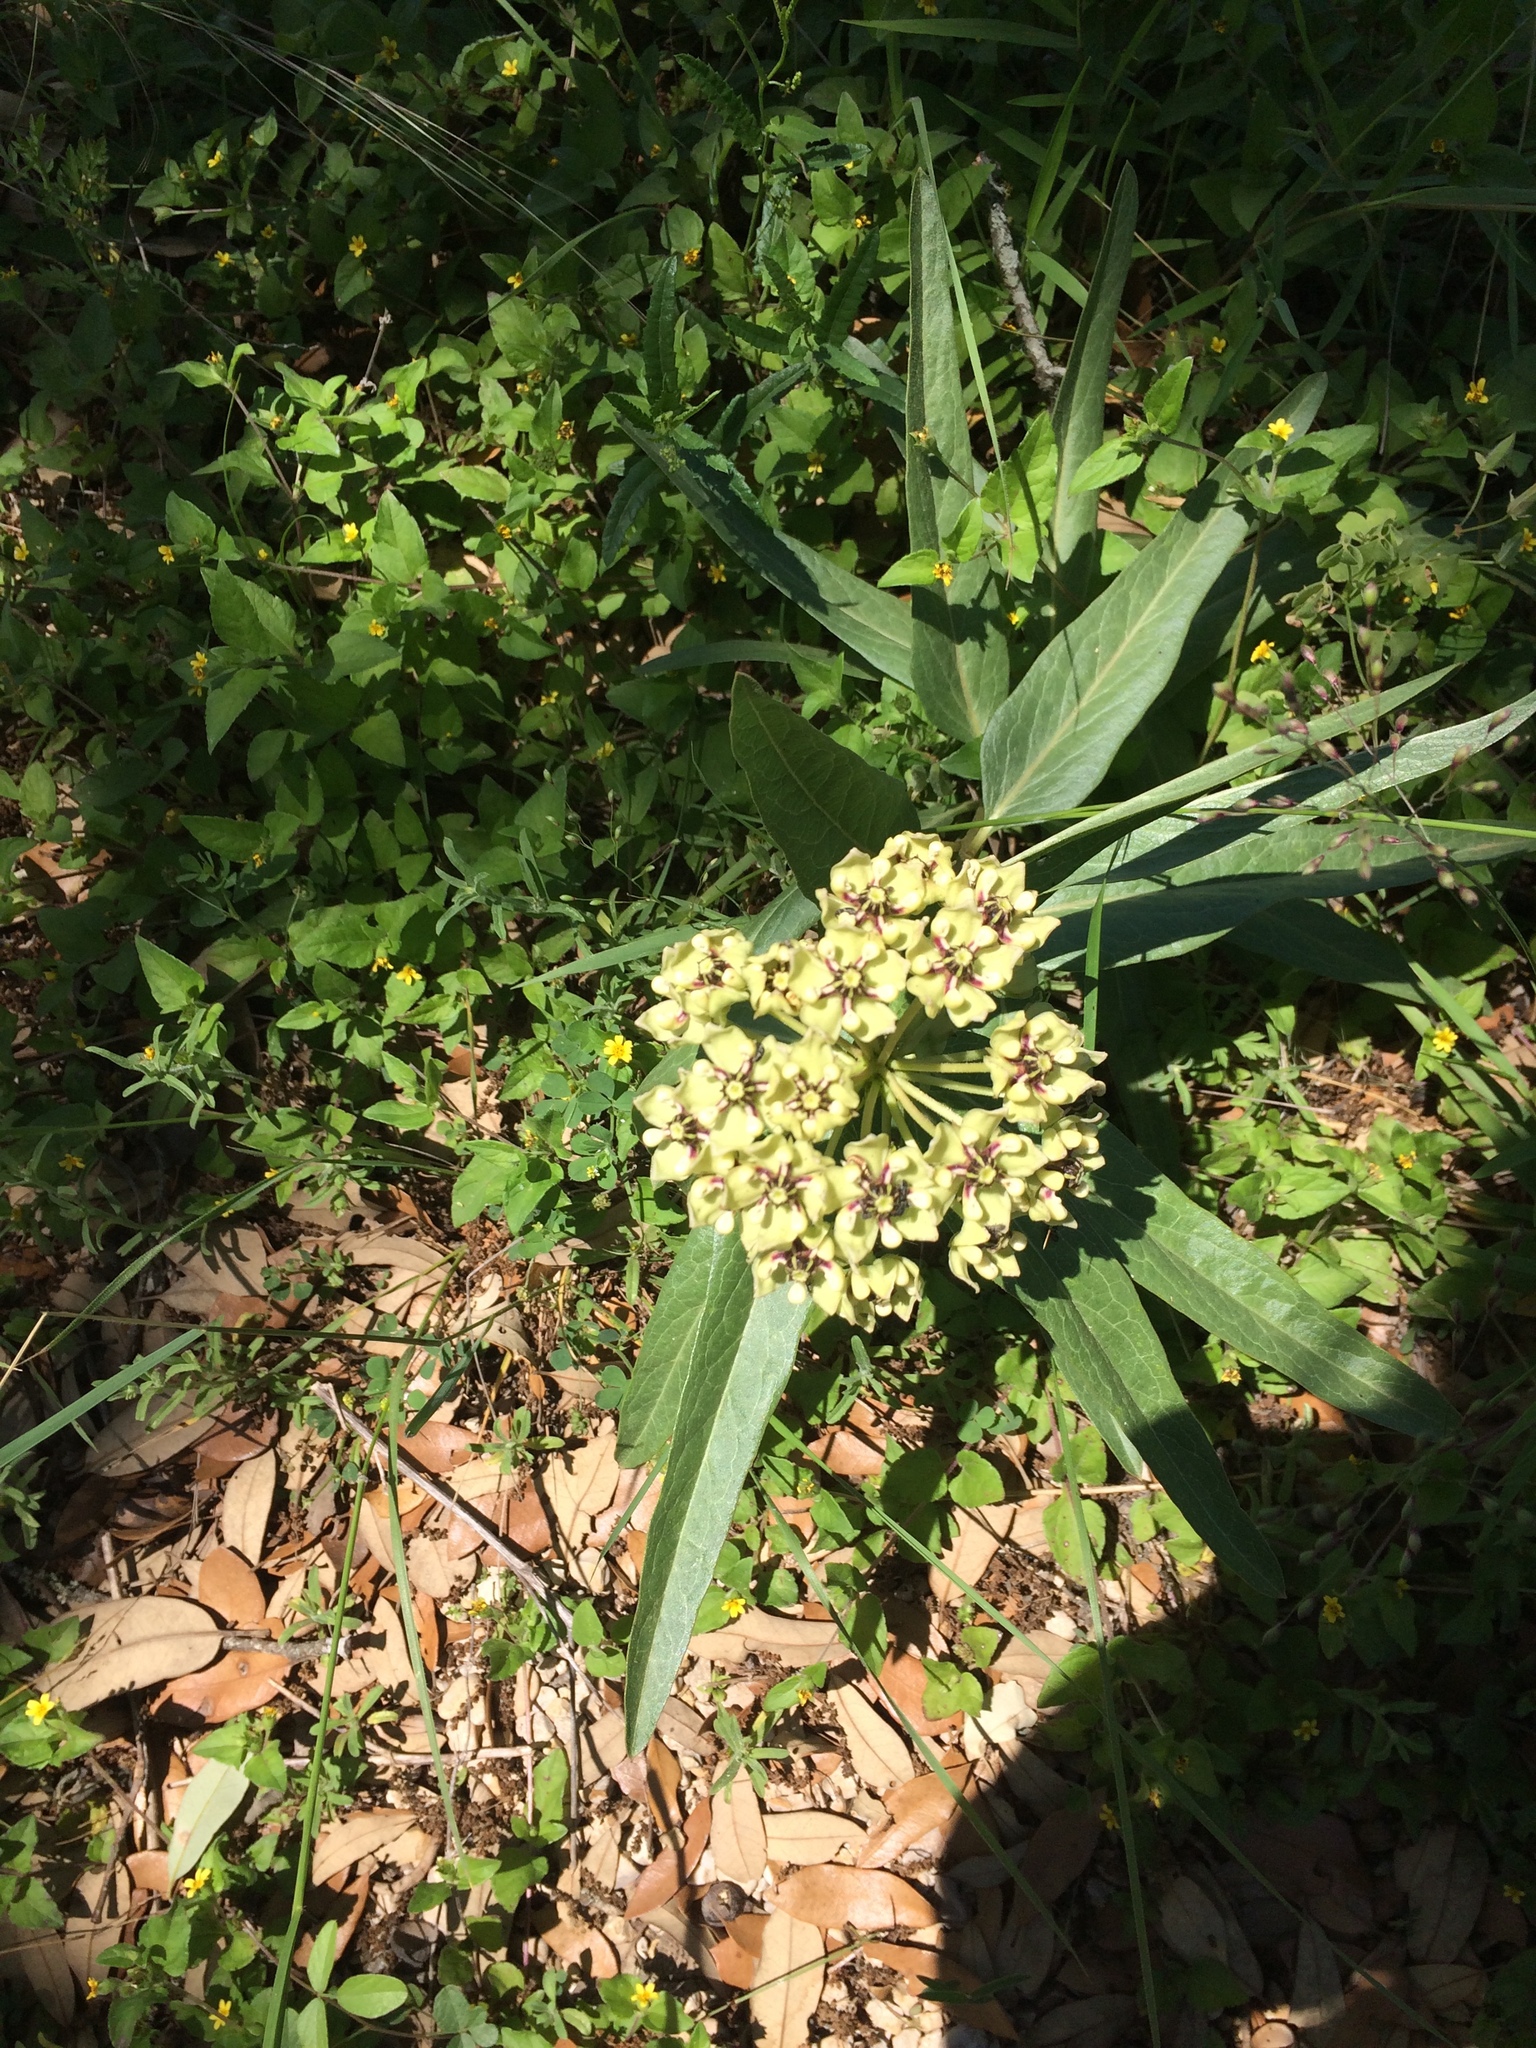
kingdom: Plantae
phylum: Tracheophyta
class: Magnoliopsida
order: Gentianales
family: Apocynaceae
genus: Asclepias
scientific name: Asclepias asperula
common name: Antelope horns
